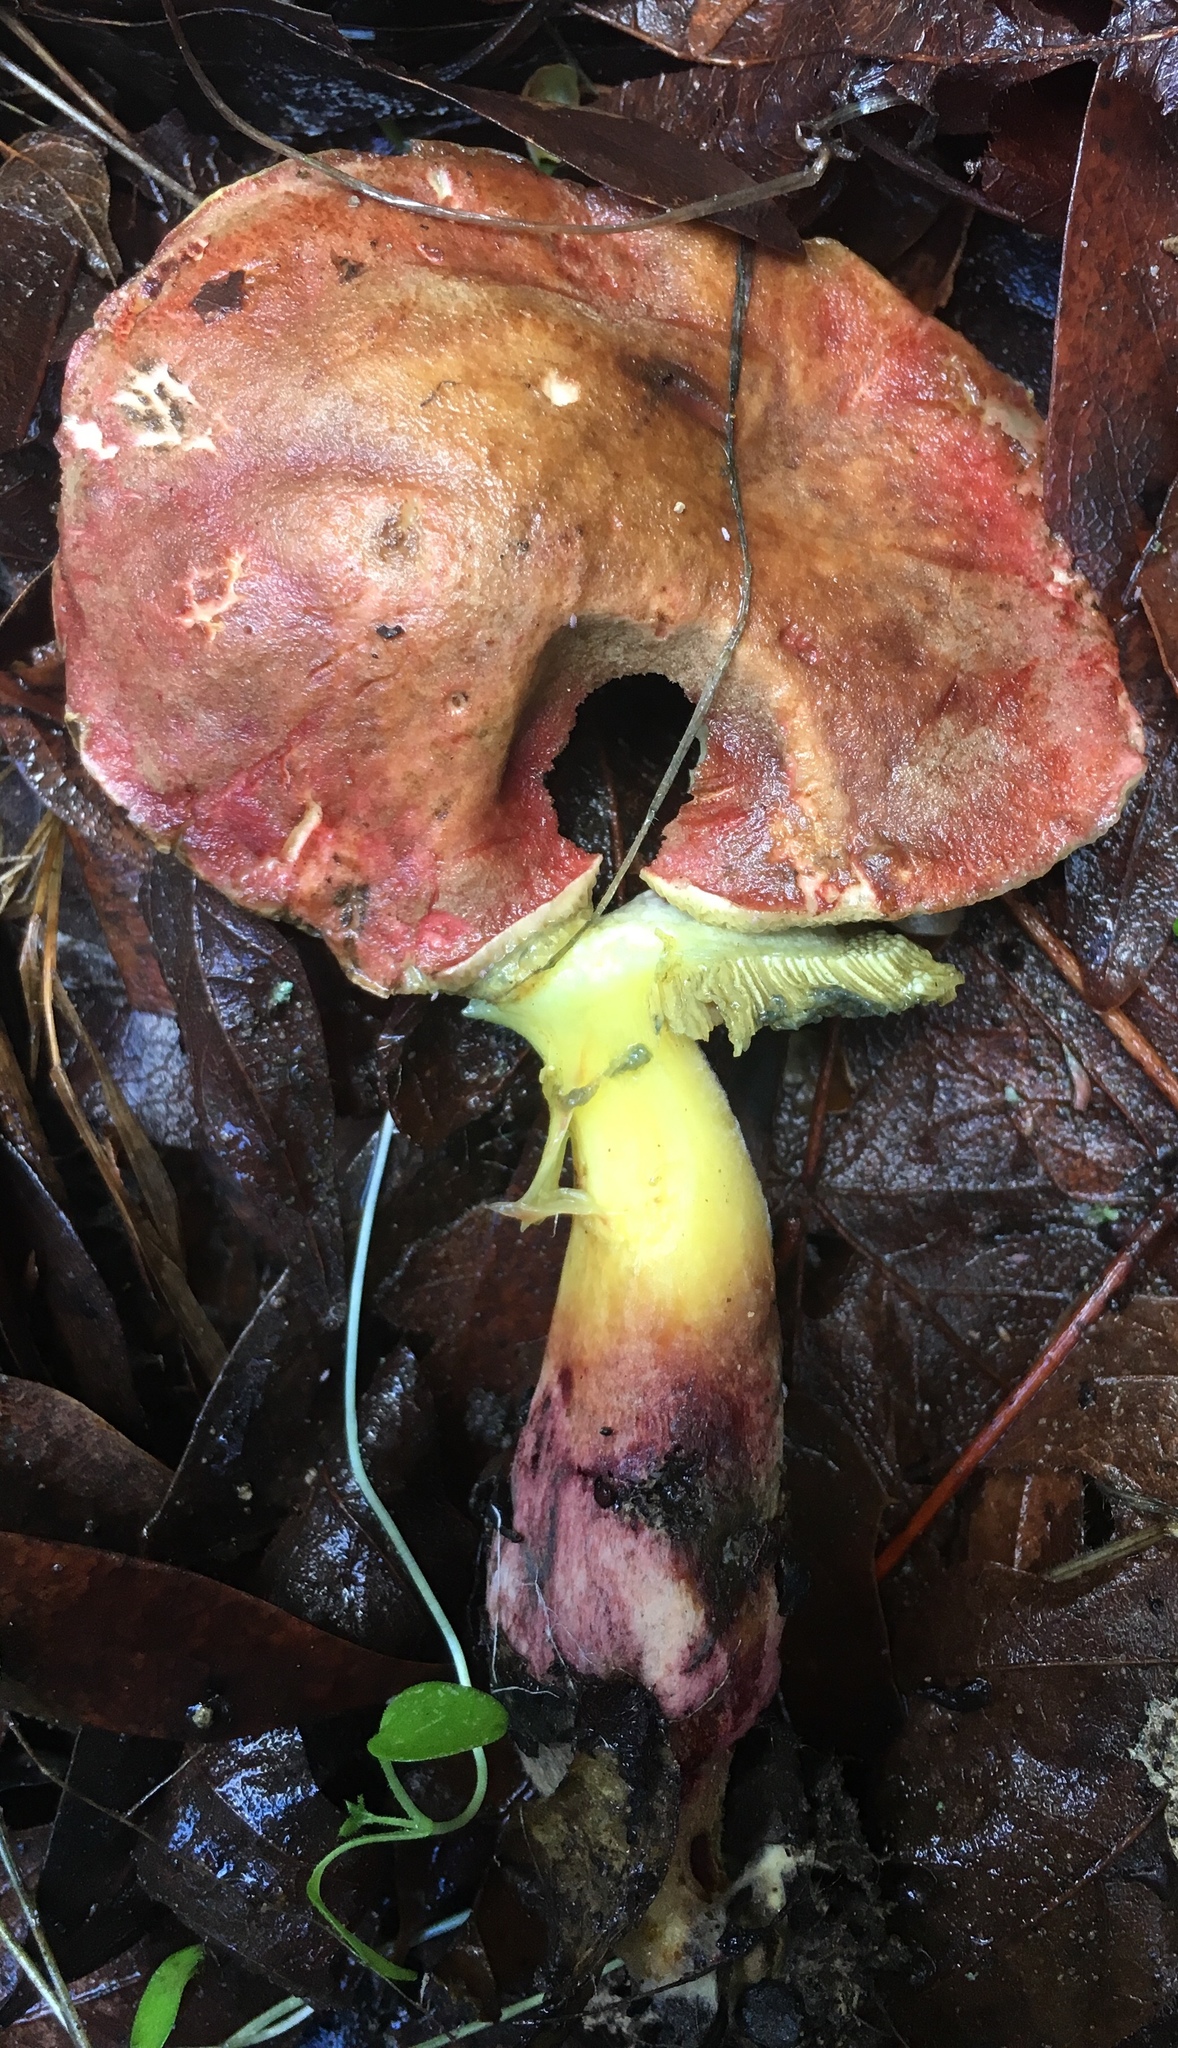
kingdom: Fungi
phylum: Basidiomycota
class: Agaricomycetes
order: Boletales
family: Boletaceae
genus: Xerocomellus
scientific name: Xerocomellus dryophilus
